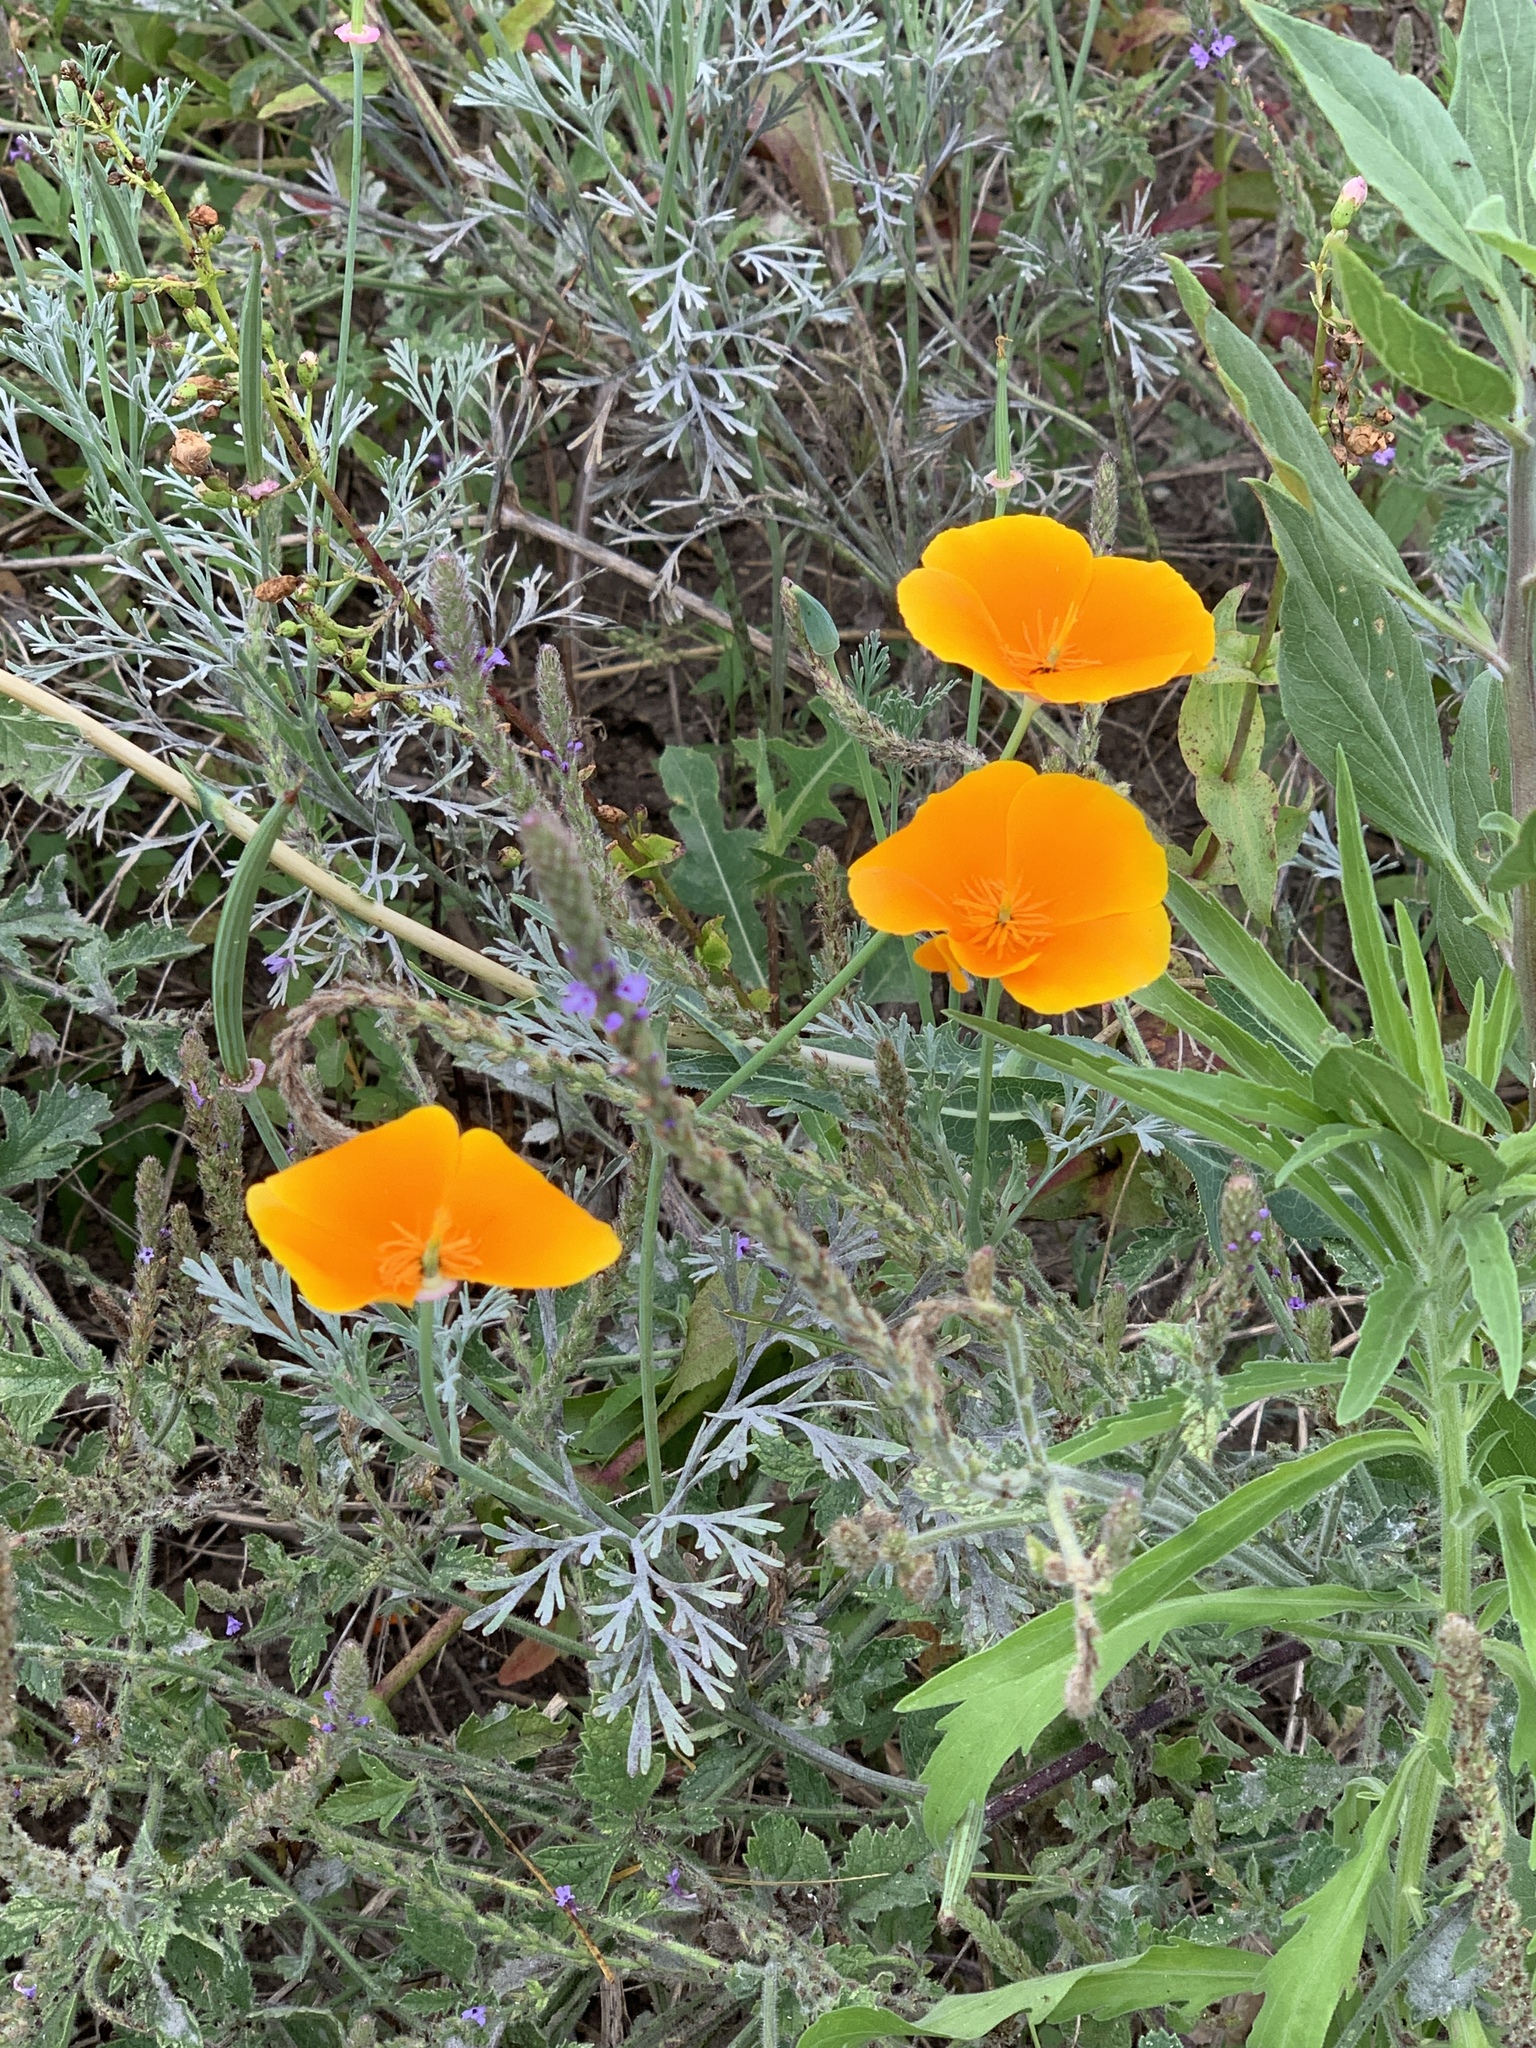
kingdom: Plantae
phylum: Tracheophyta
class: Magnoliopsida
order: Ranunculales
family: Papaveraceae
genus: Eschscholzia
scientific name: Eschscholzia californica
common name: California poppy
